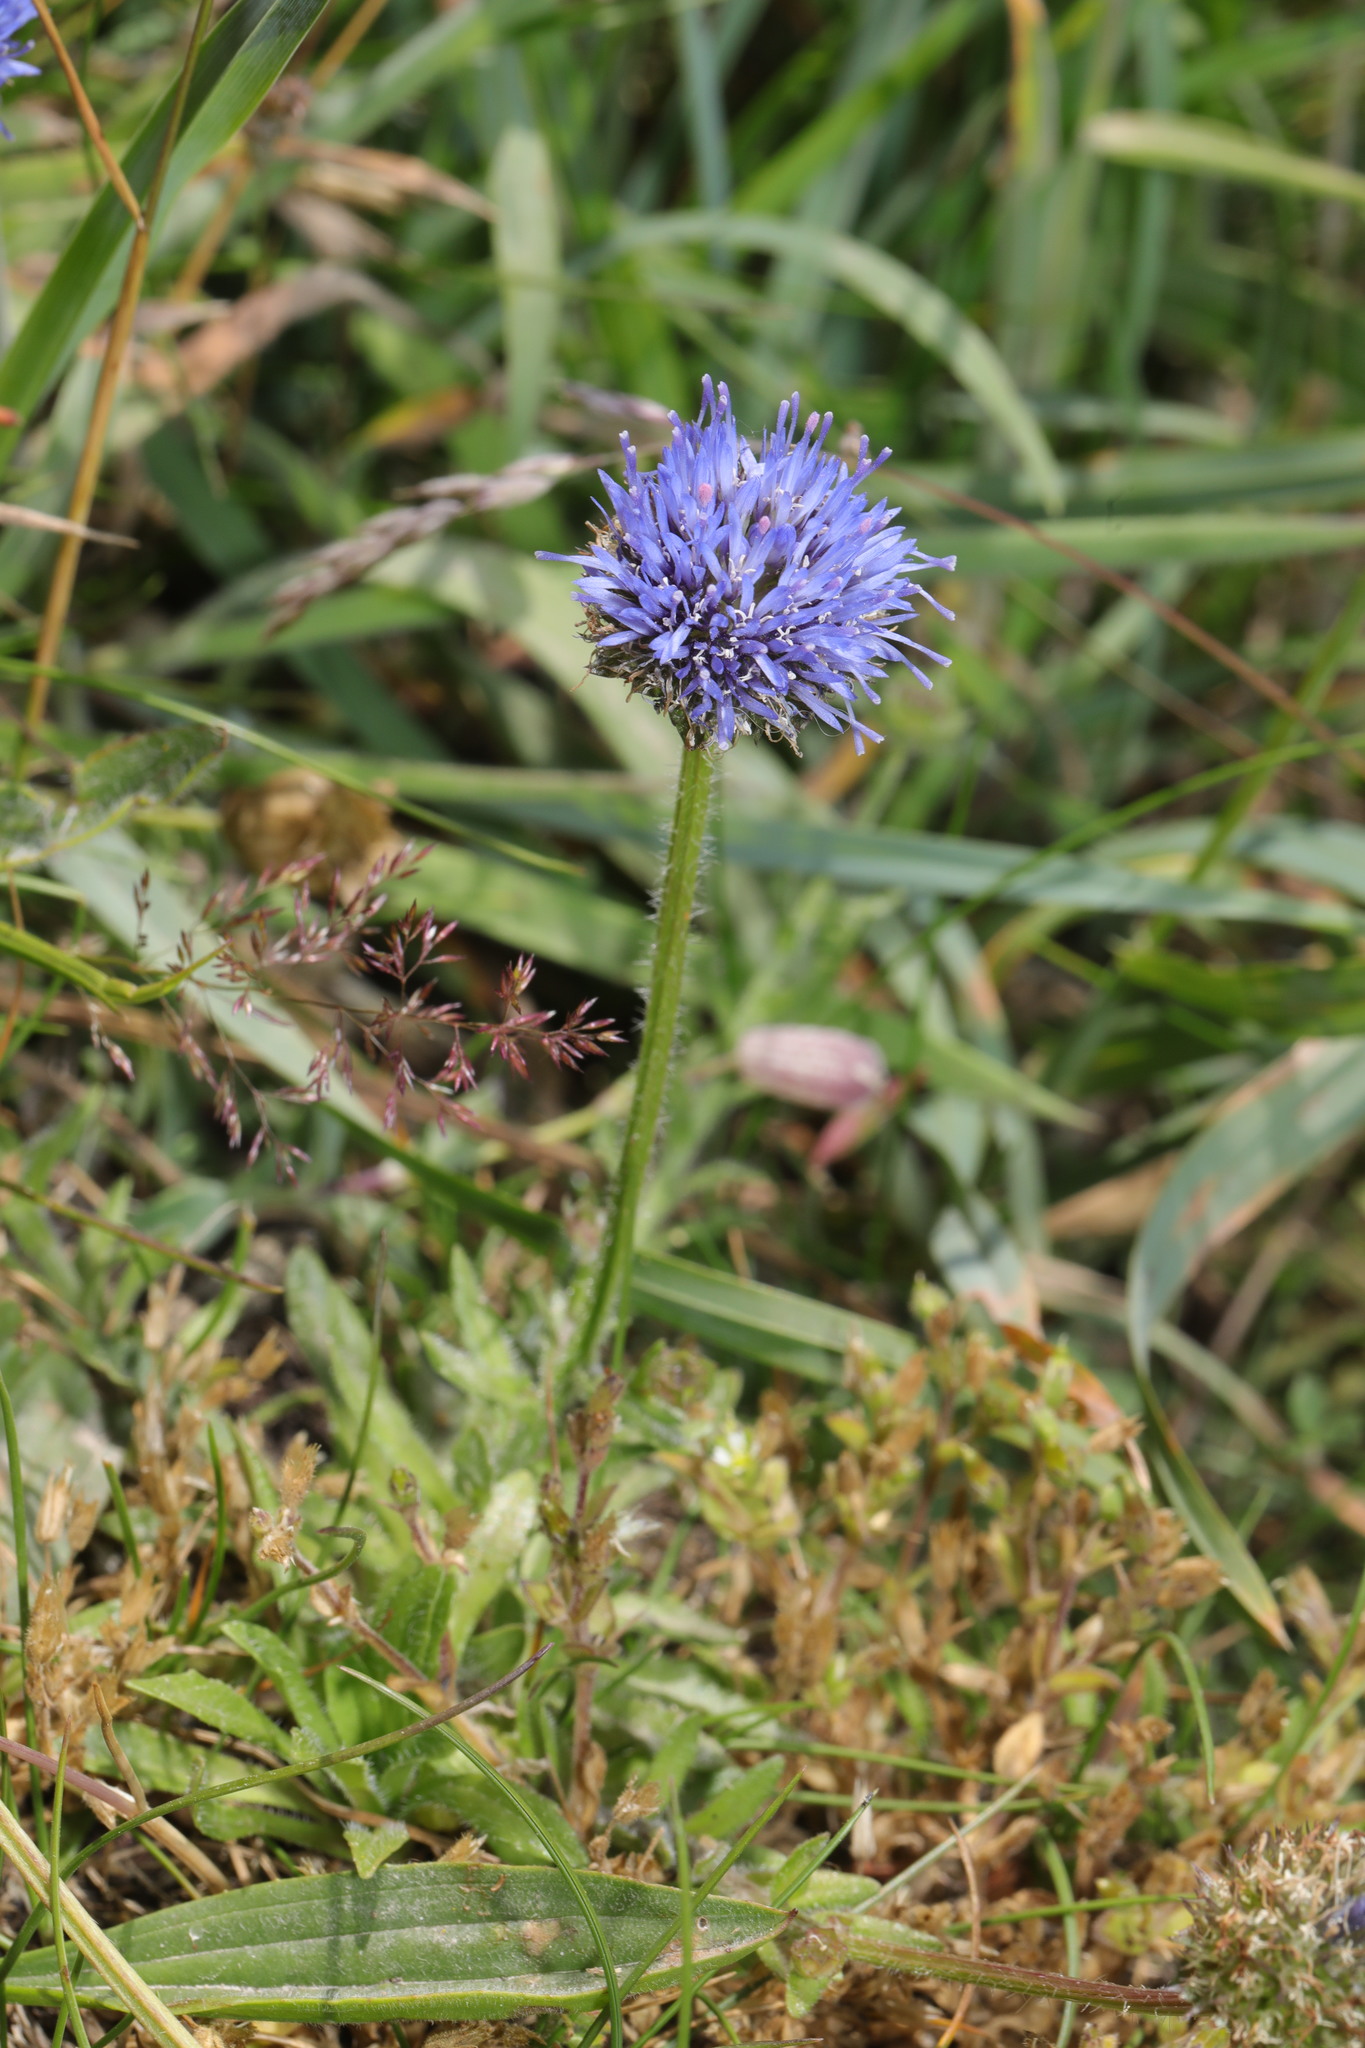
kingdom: Plantae
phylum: Tracheophyta
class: Magnoliopsida
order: Asterales
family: Campanulaceae
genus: Jasione
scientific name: Jasione montana
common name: Sheep's-bit
